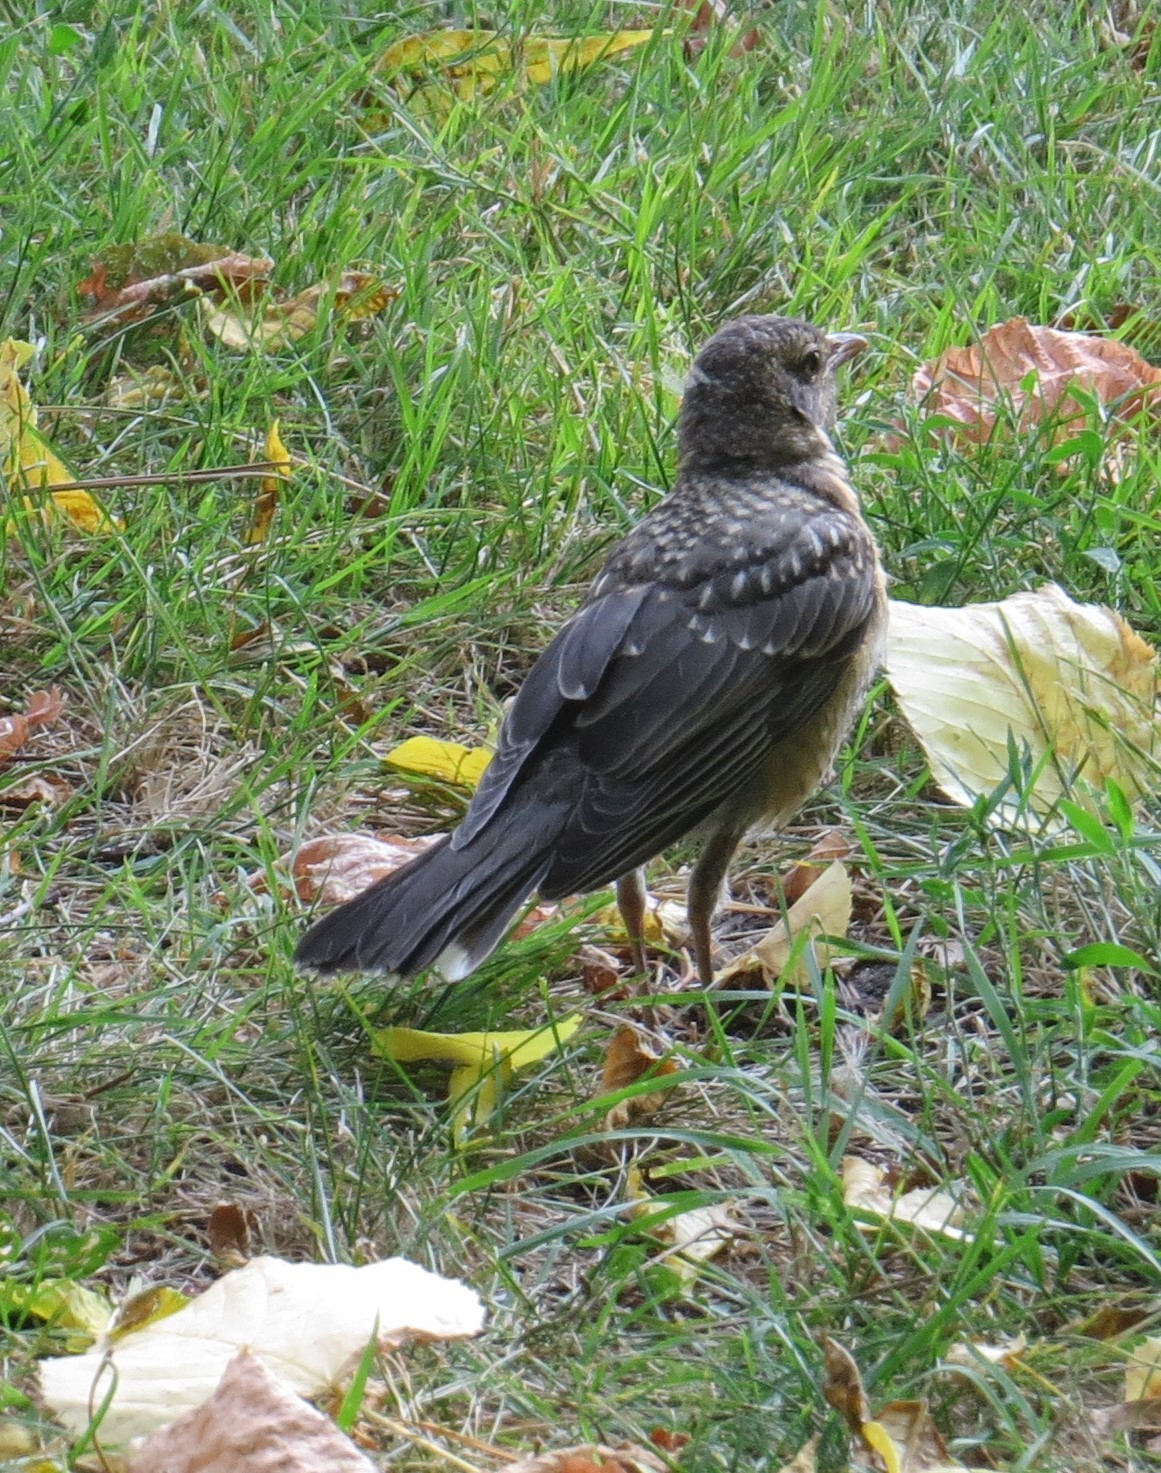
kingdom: Animalia
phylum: Chordata
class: Aves
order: Passeriformes
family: Turdidae
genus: Turdus
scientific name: Turdus migratorius
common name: American robin
